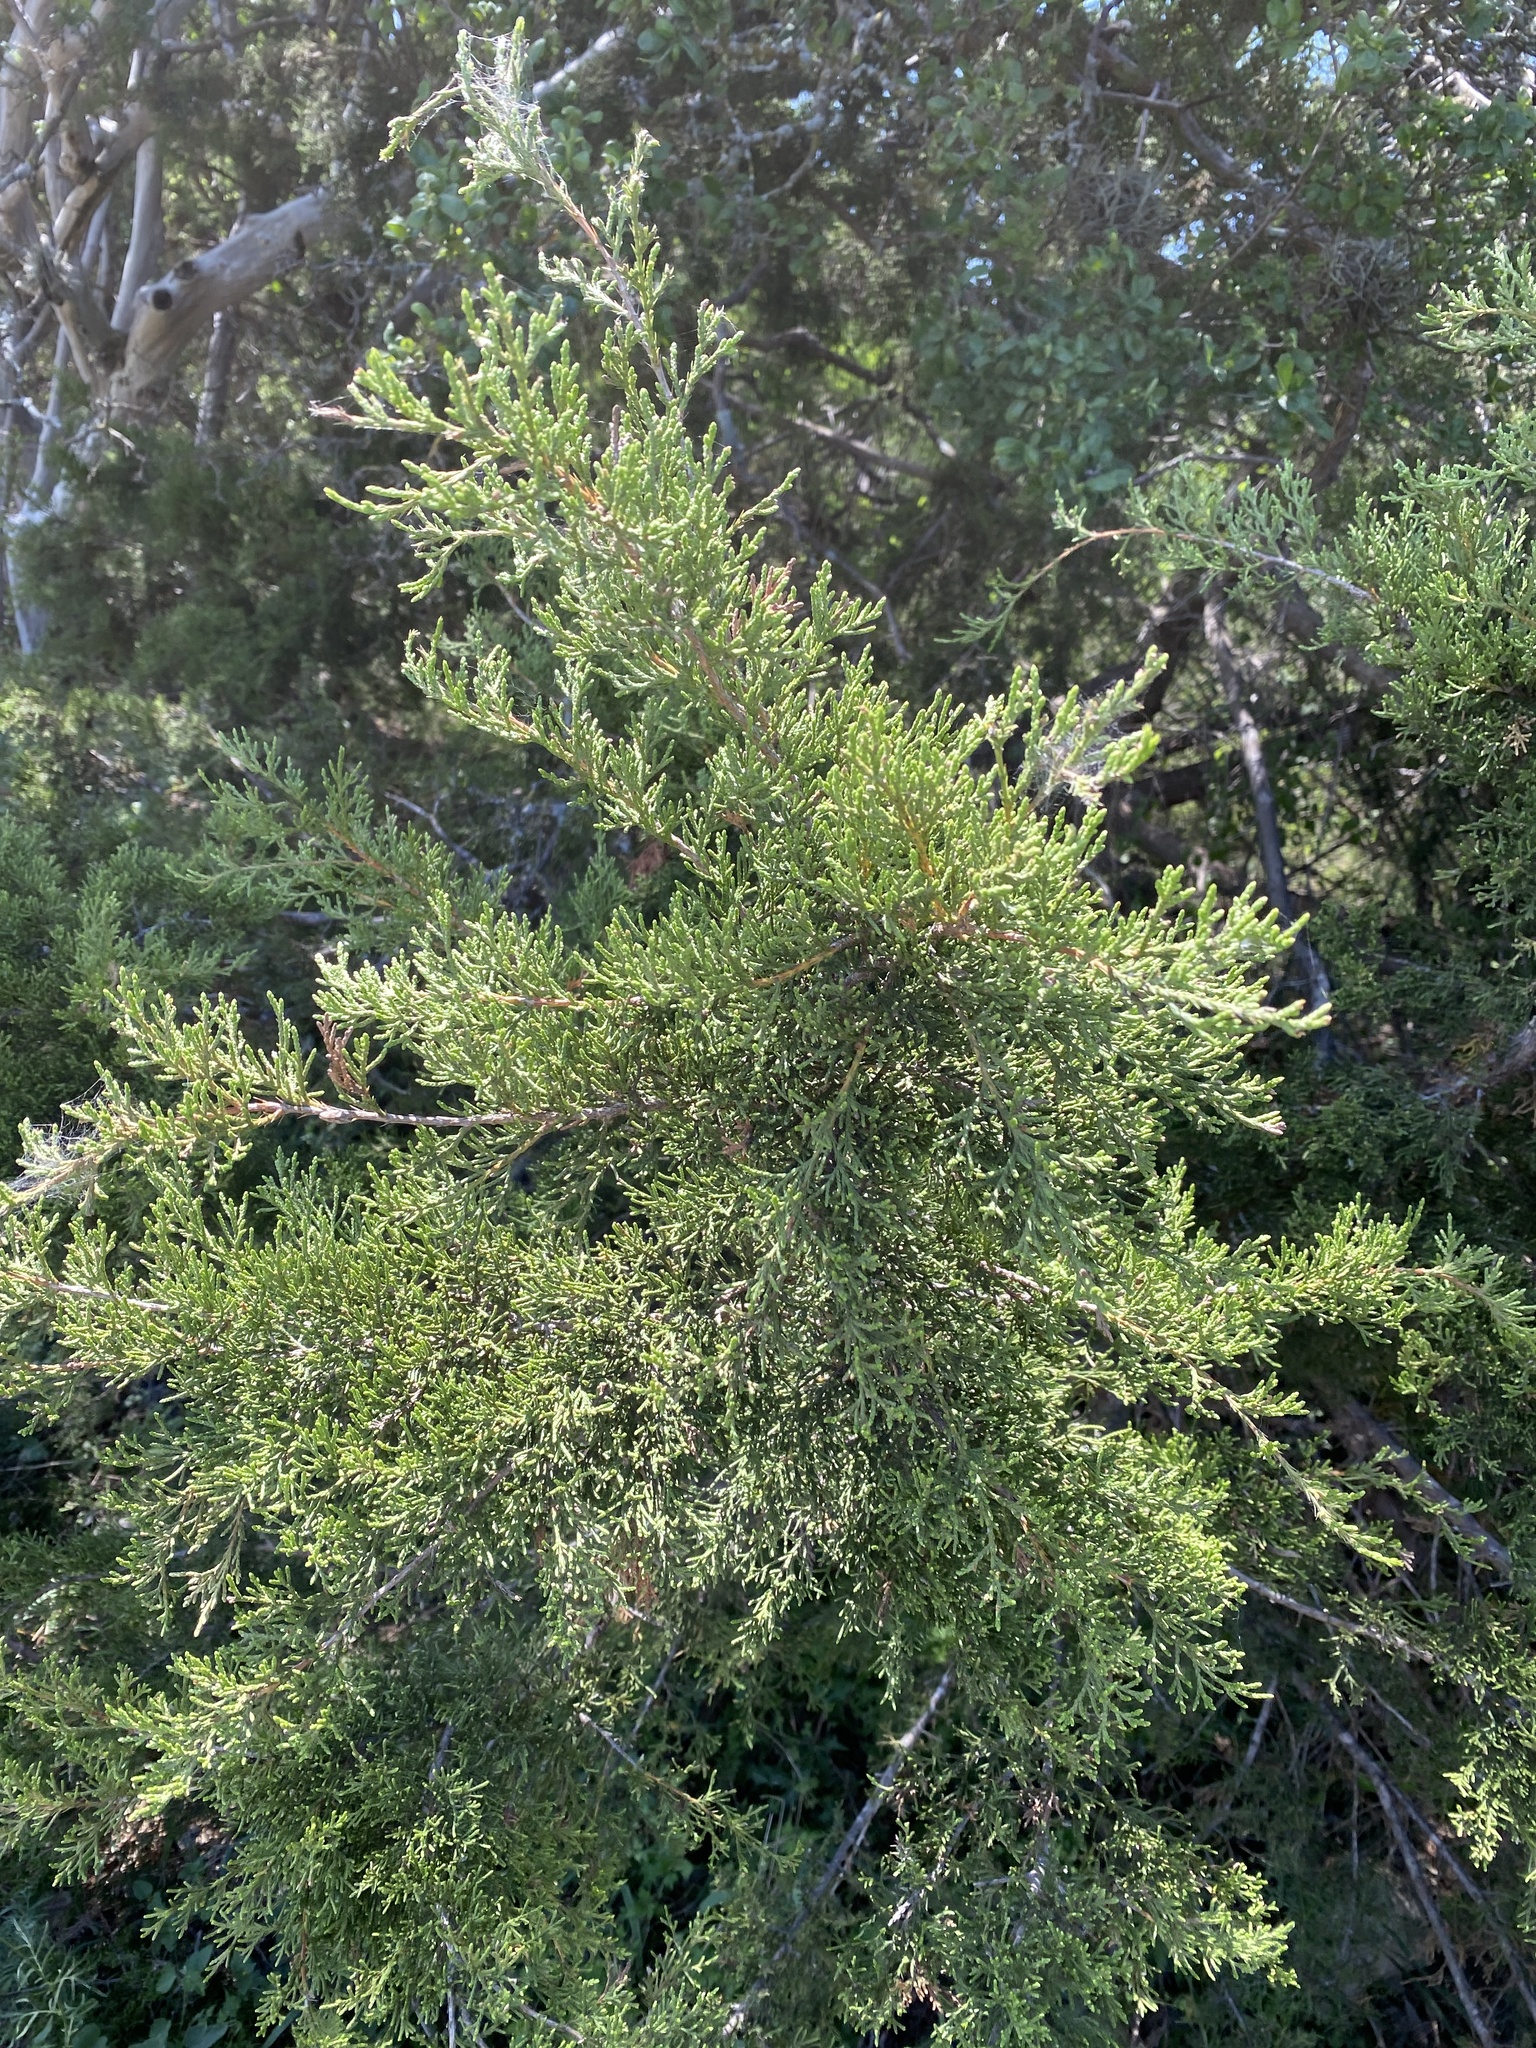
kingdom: Plantae
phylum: Tracheophyta
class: Pinopsida
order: Pinales
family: Cupressaceae
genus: Juniperus
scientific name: Juniperus ashei
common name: Mexican juniper
